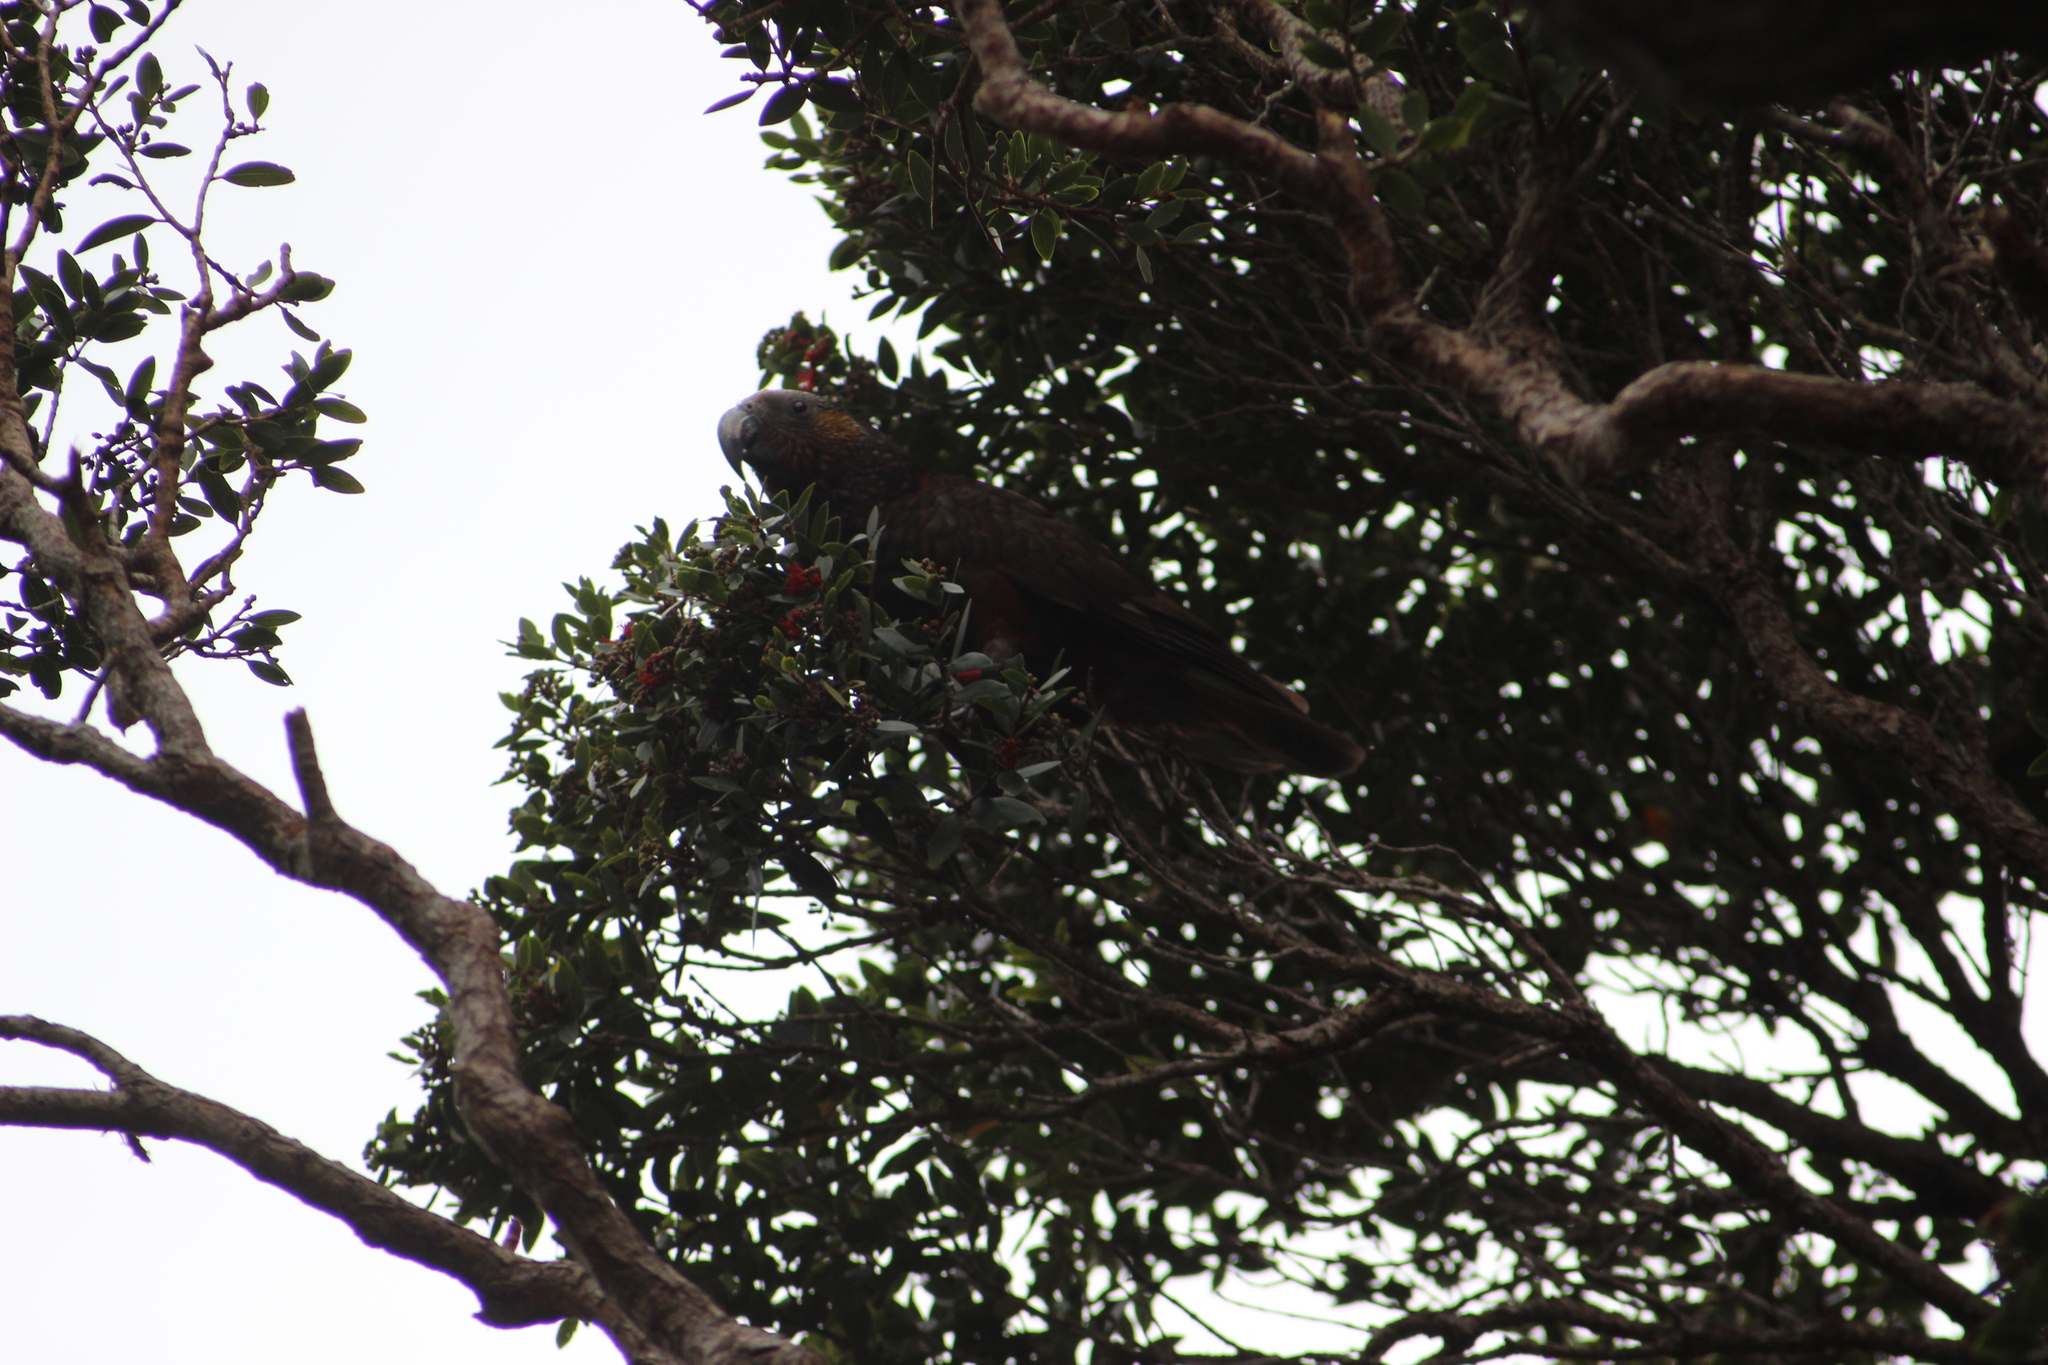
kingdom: Animalia
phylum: Chordata
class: Aves
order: Psittaciformes
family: Psittacidae
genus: Nestor
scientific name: Nestor meridionalis
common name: New zealand kaka
